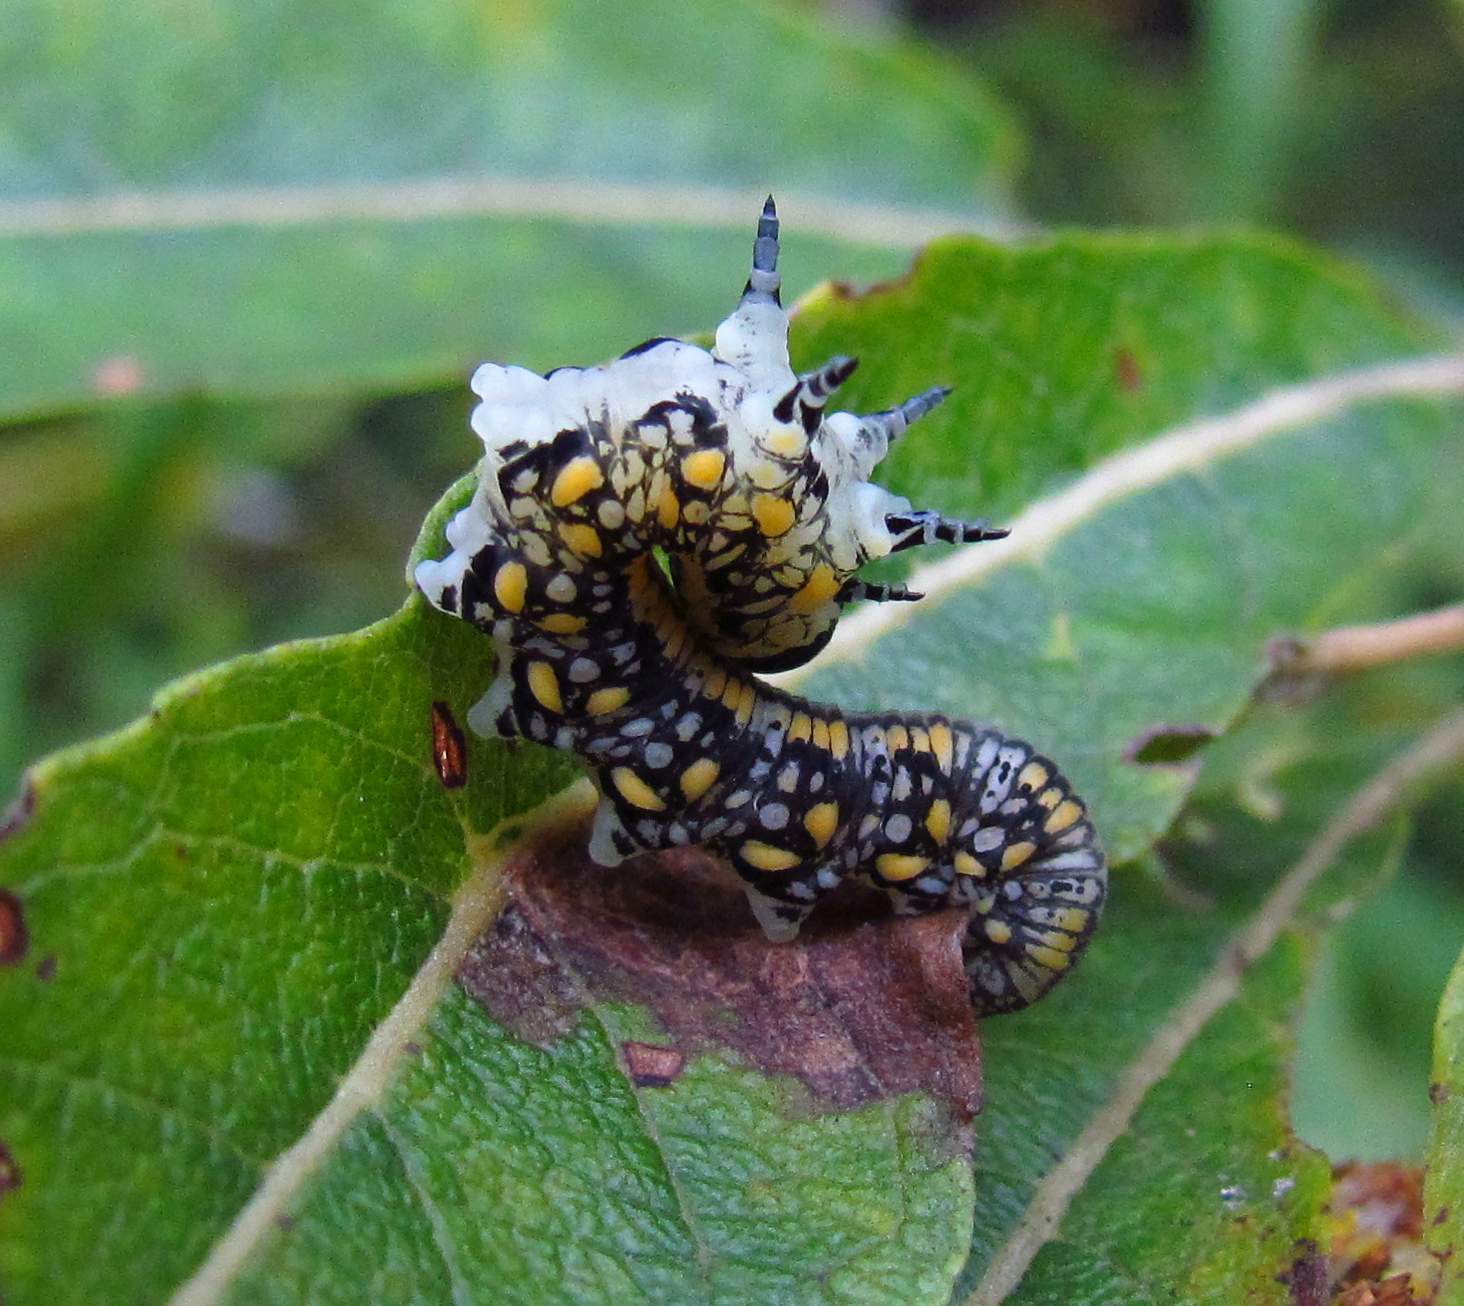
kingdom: Animalia
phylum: Arthropoda
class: Insecta
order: Hymenoptera
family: Diprionidae
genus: Diprion
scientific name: Diprion similis
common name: Pine sawfly
